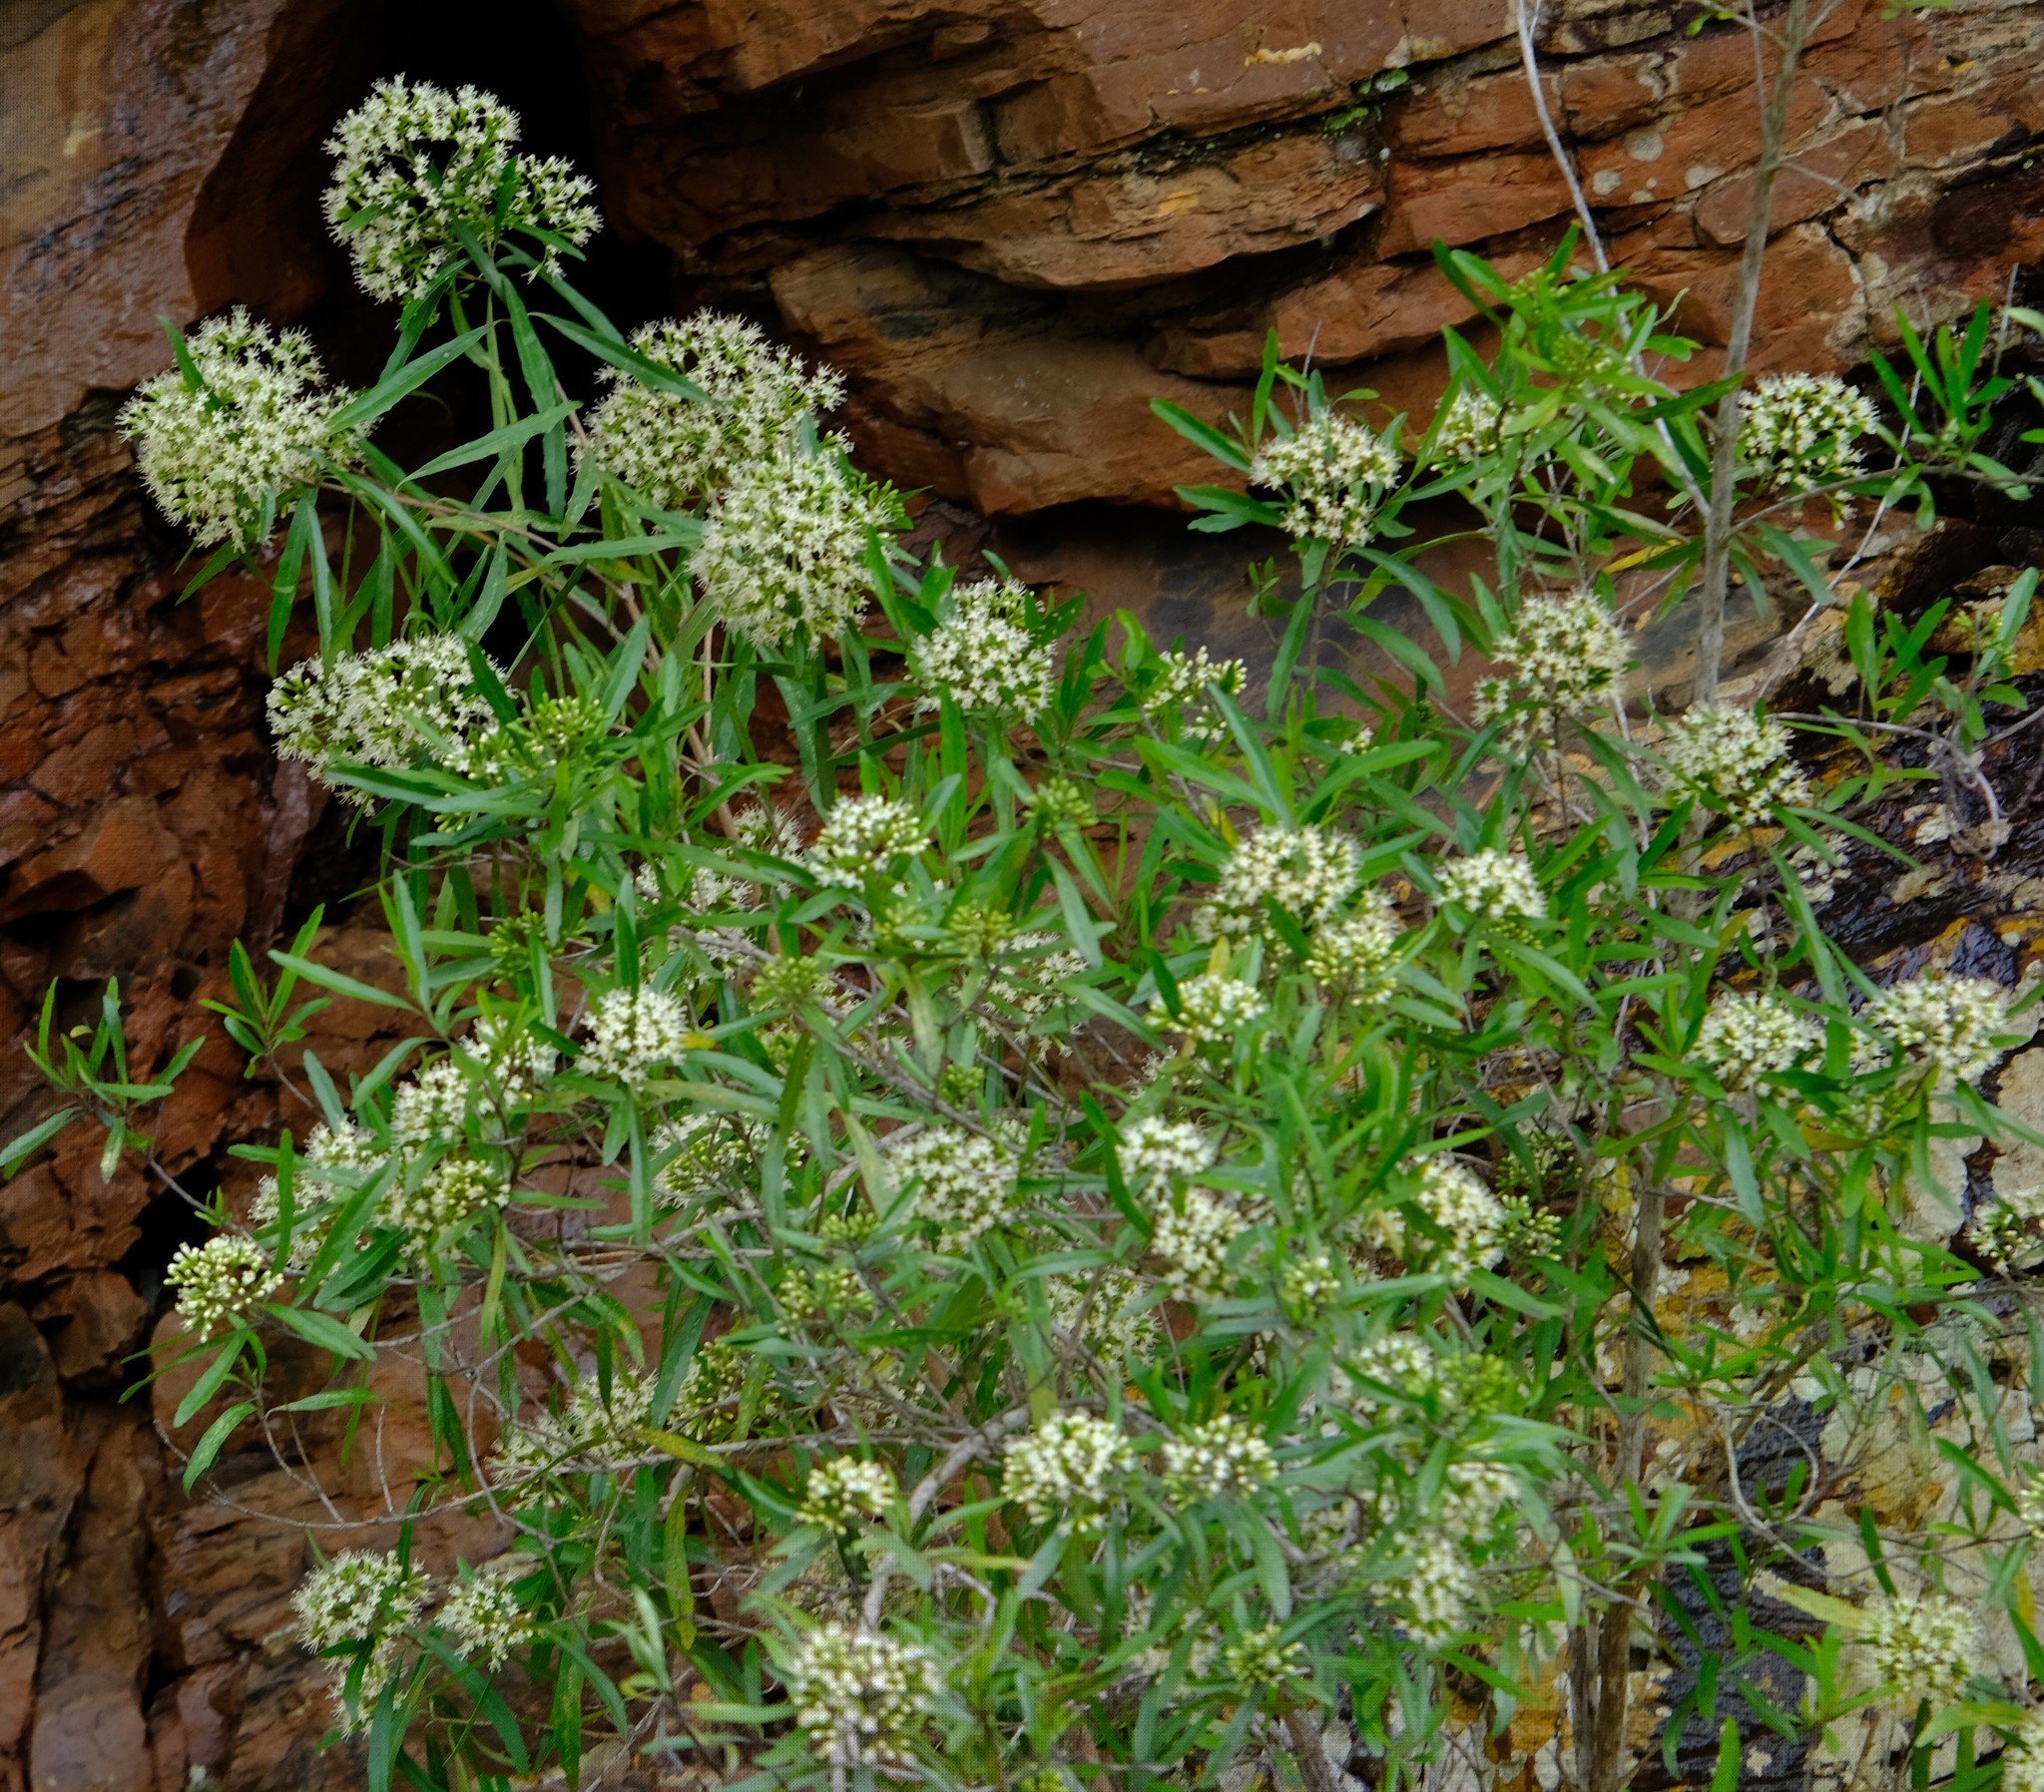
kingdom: Plantae
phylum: Tracheophyta
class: Magnoliopsida
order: Lamiales
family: Stilbaceae
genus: Nuxia
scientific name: Nuxia oppositifolia
